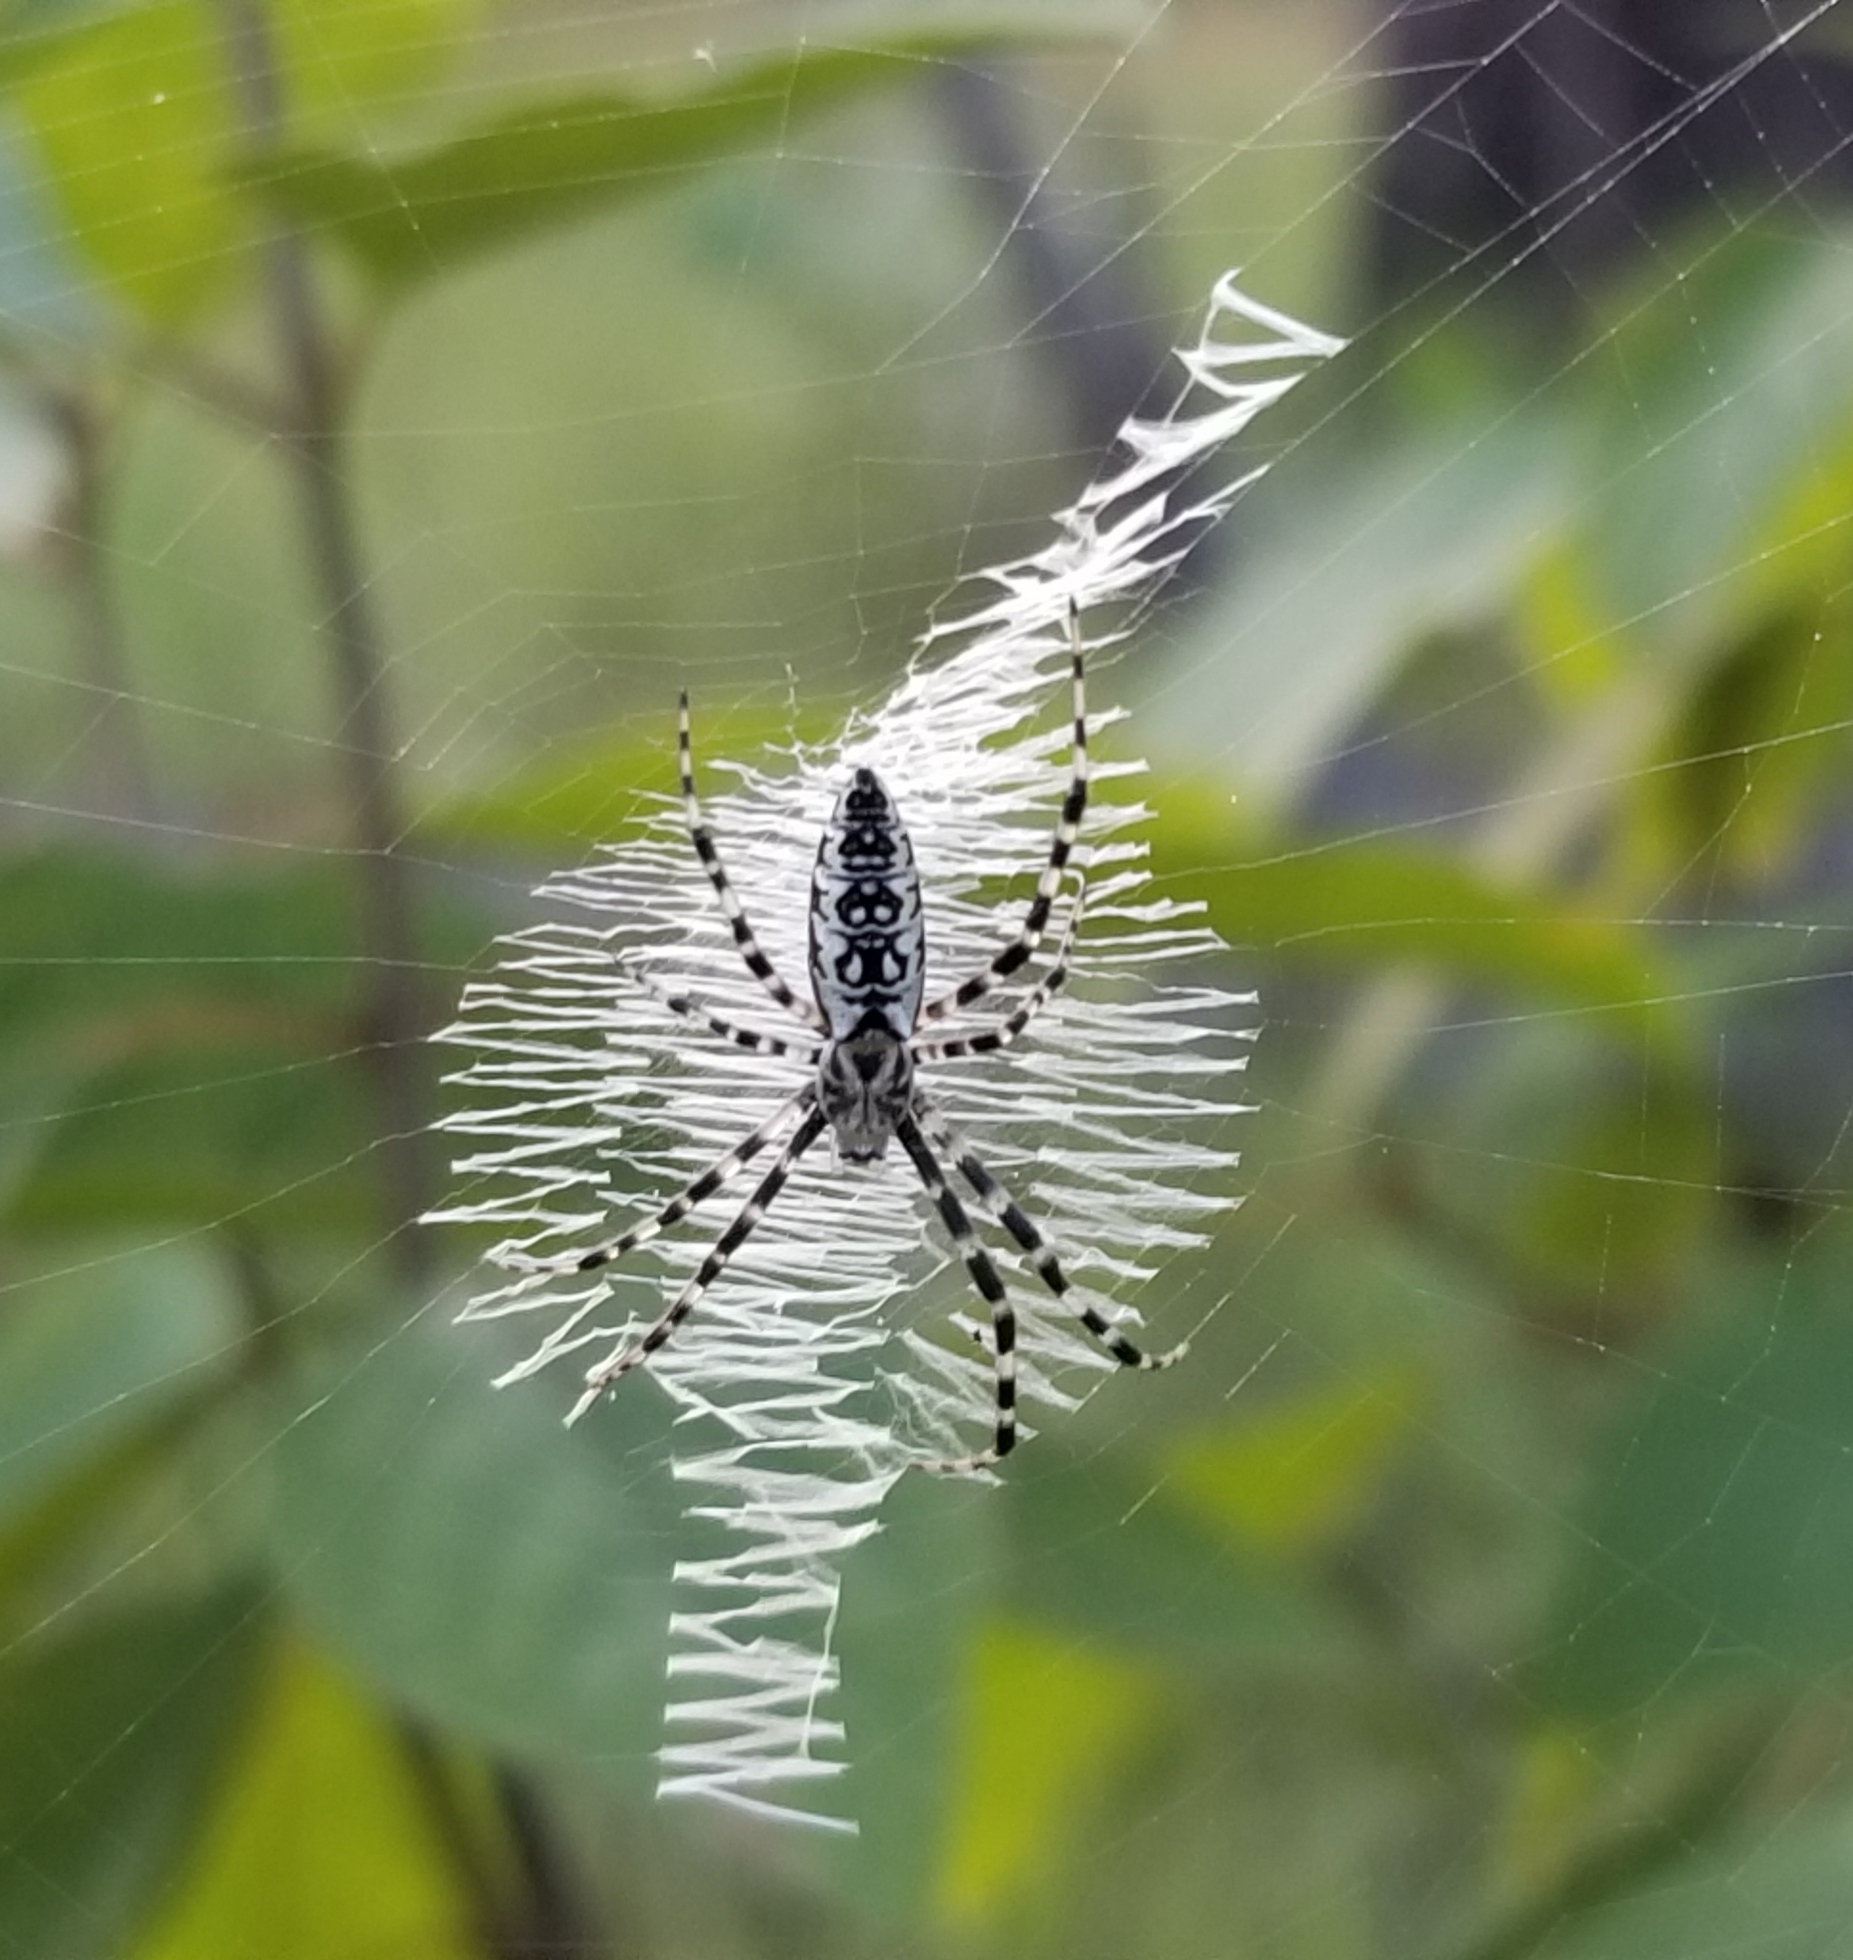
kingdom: Animalia
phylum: Arthropoda
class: Arachnida
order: Araneae
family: Araneidae
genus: Argiope
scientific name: Argiope aurantia
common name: Orb weavers
